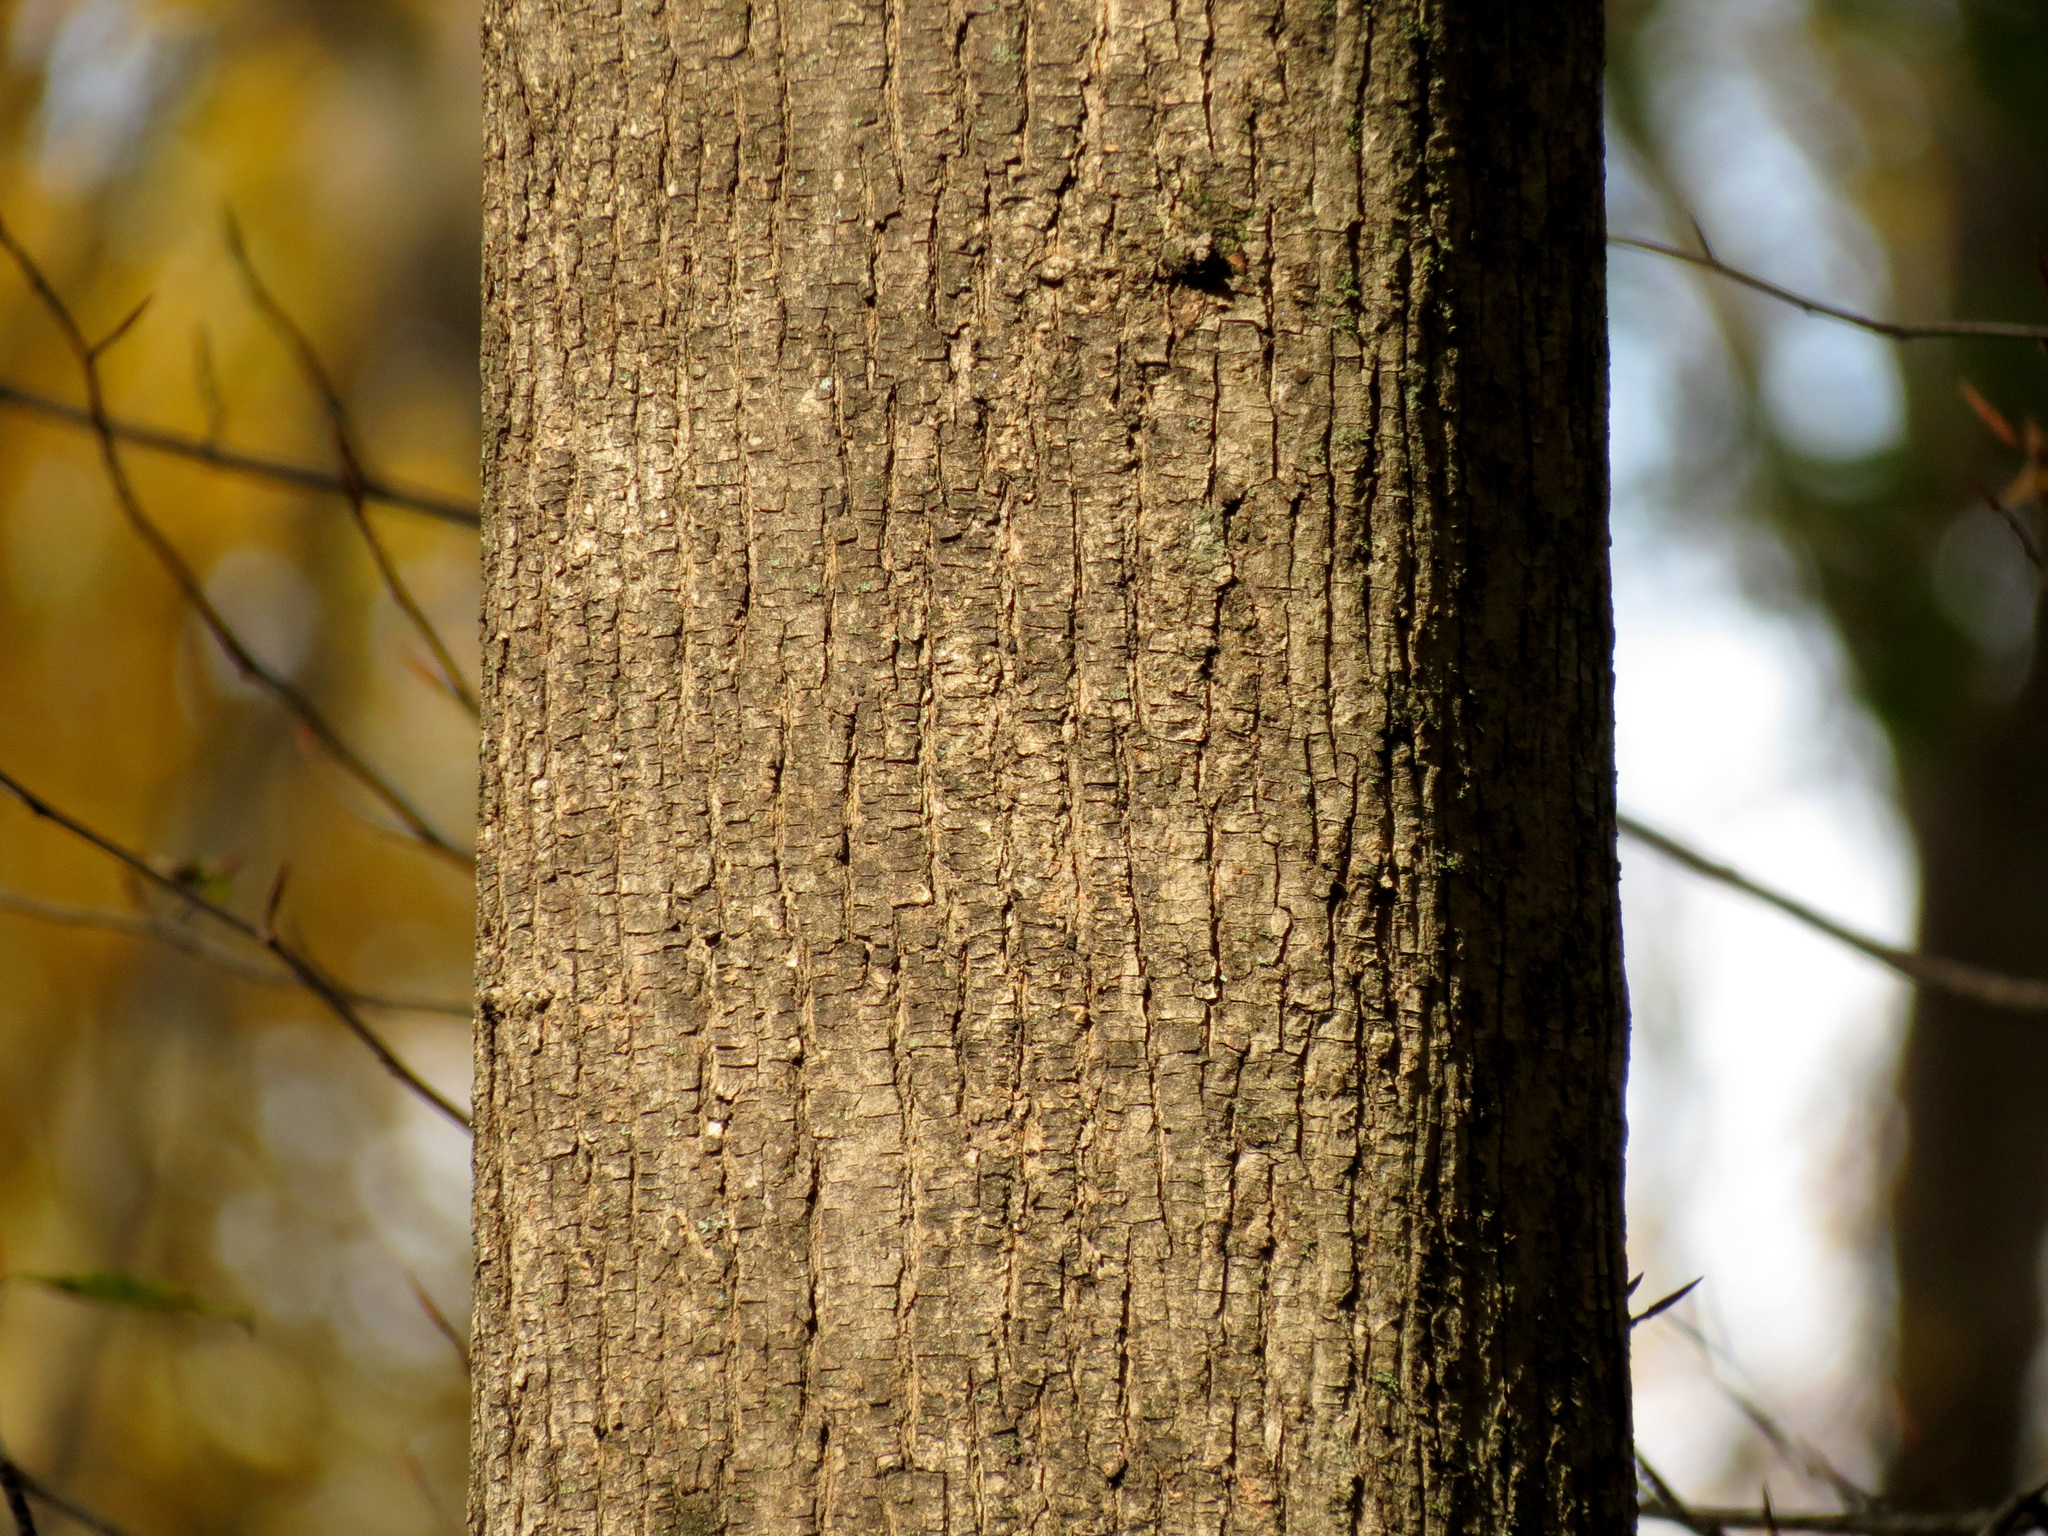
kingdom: Plantae
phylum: Tracheophyta
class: Magnoliopsida
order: Sapindales
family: Sapindaceae
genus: Acer
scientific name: Acer platanoides
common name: Norway maple
